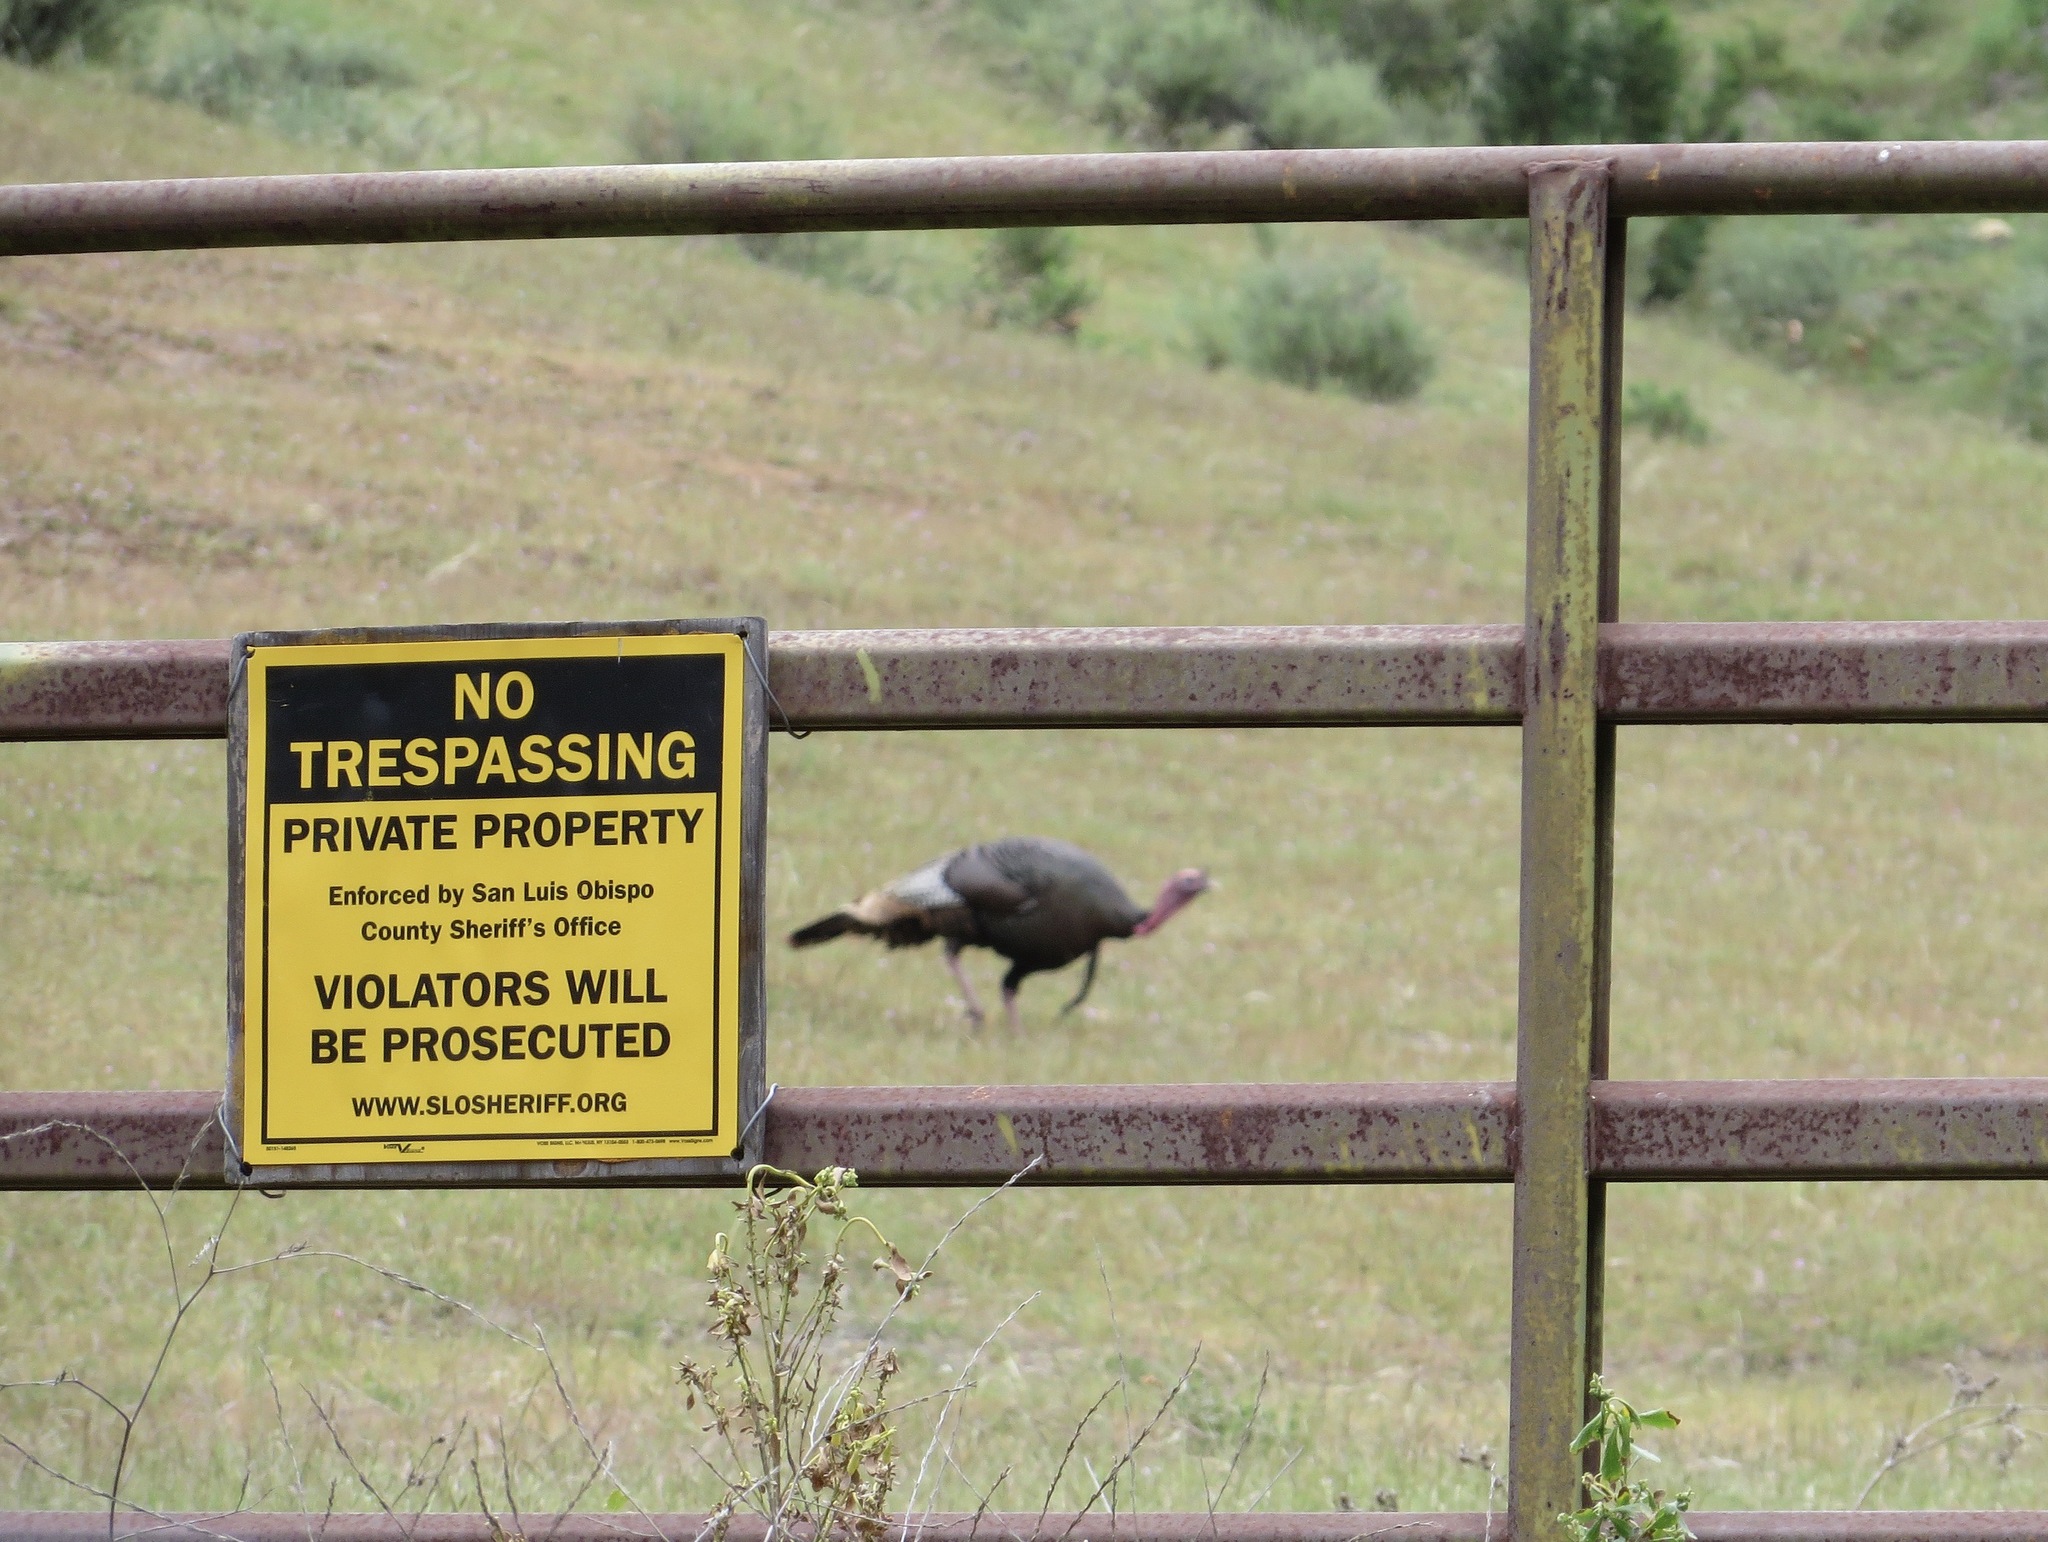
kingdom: Animalia
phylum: Chordata
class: Aves
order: Galliformes
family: Phasianidae
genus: Meleagris
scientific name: Meleagris gallopavo
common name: Wild turkey
